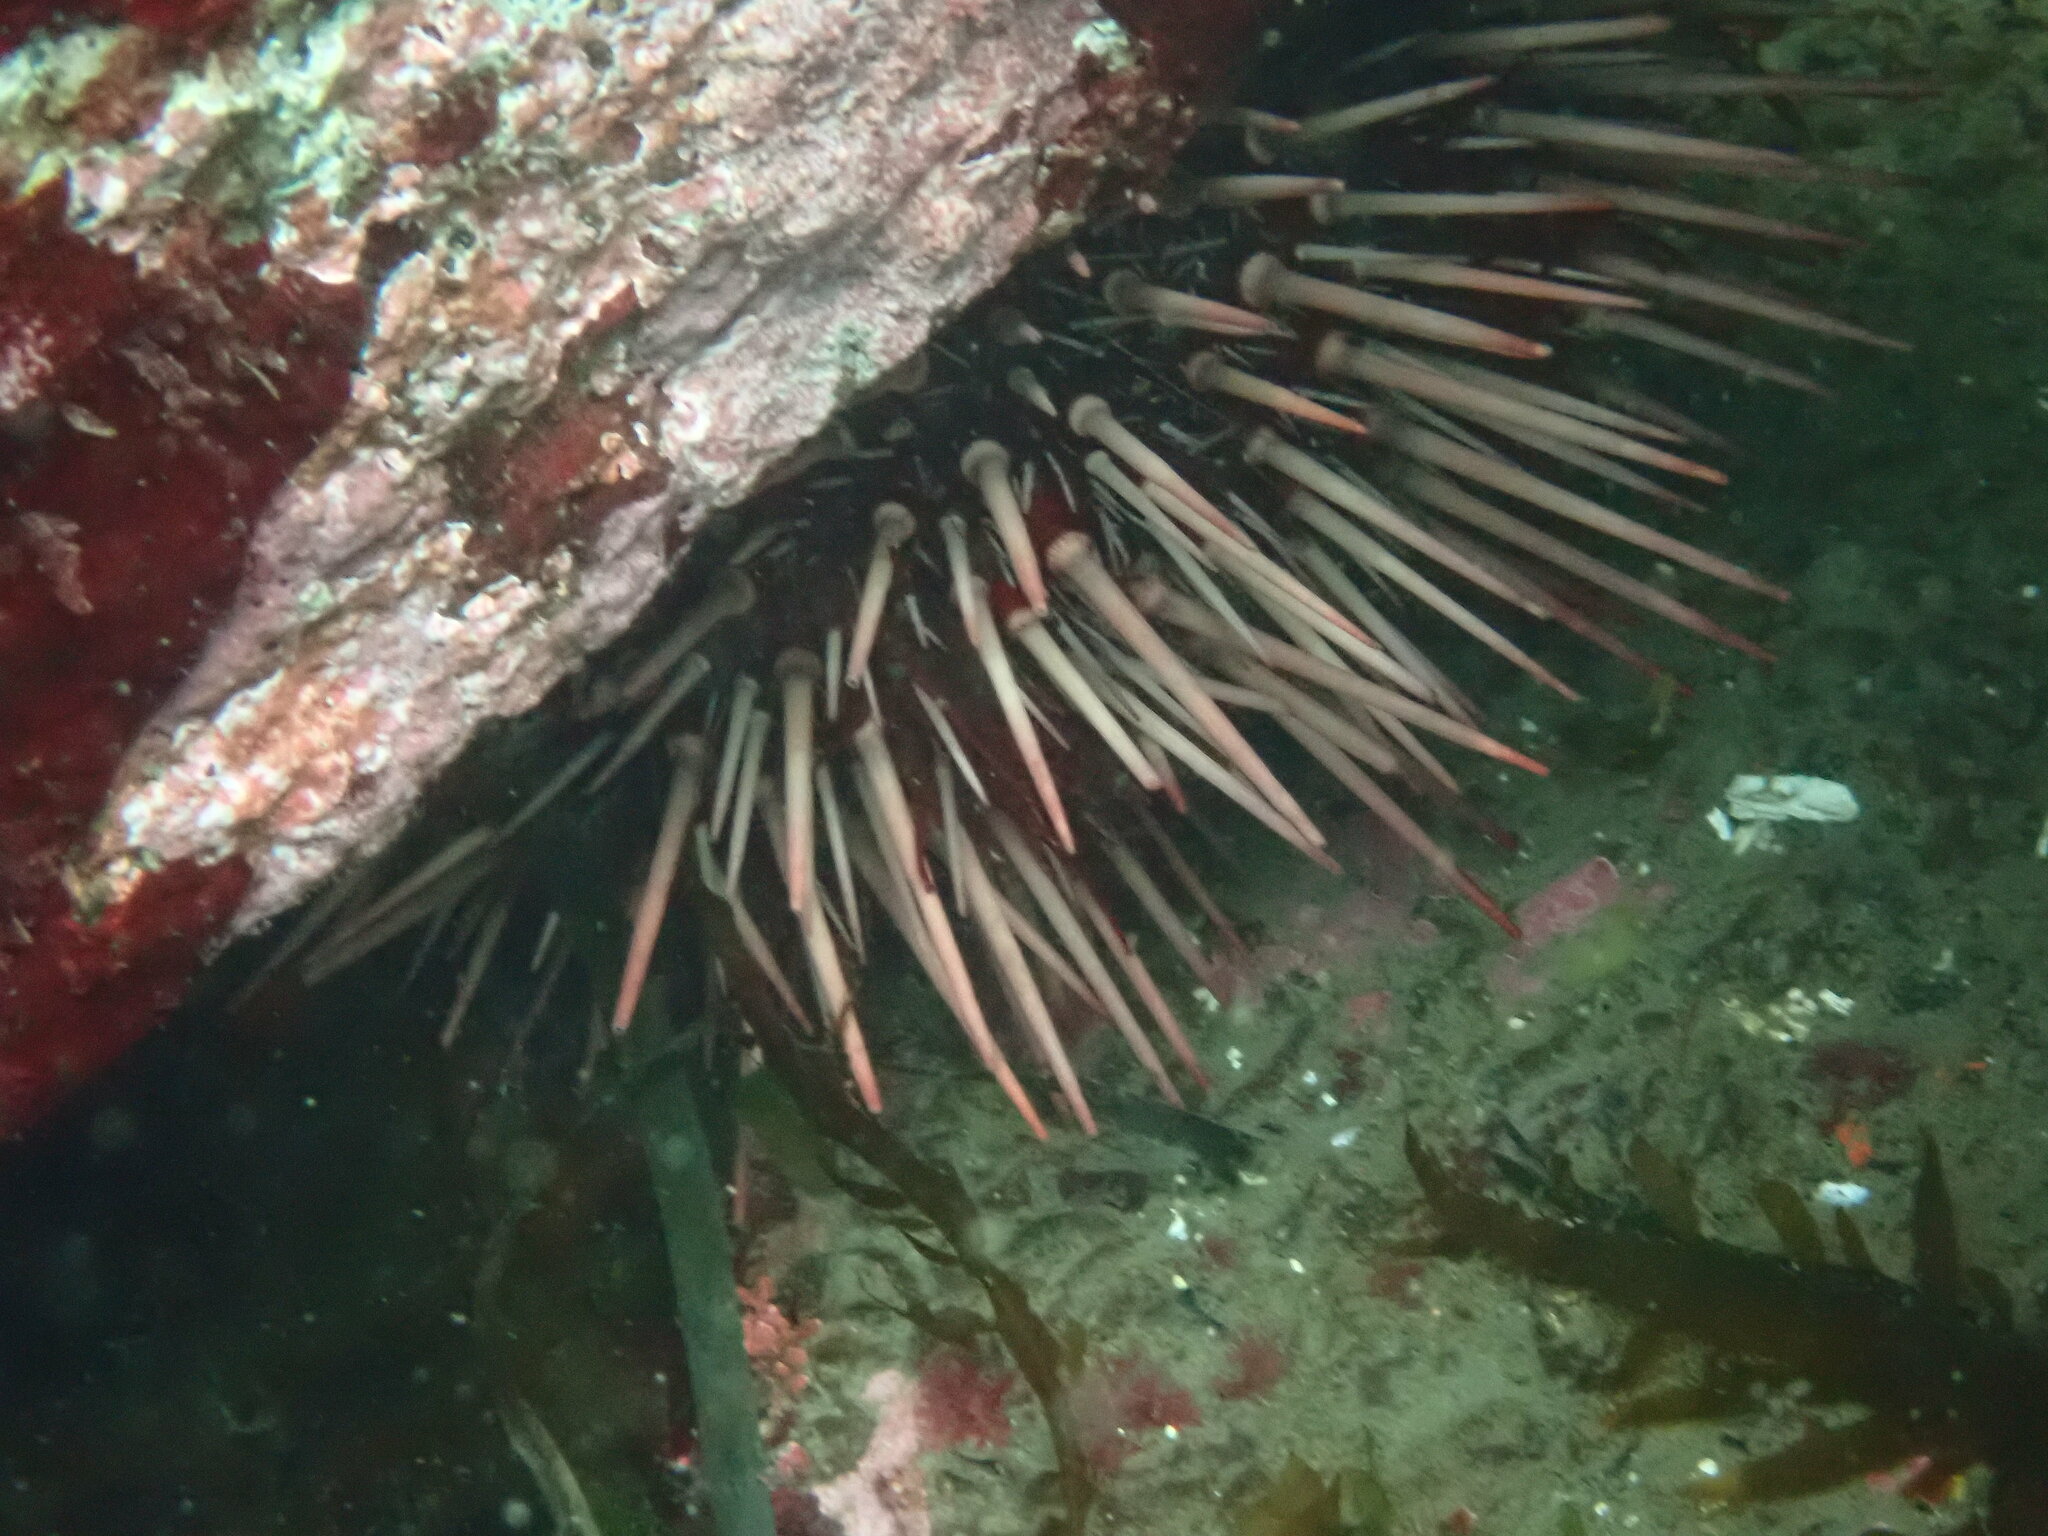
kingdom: Animalia
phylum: Echinodermata
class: Echinoidea
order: Camarodonta
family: Strongylocentrotidae
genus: Mesocentrotus
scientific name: Mesocentrotus franciscanus
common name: Red sea urchin
